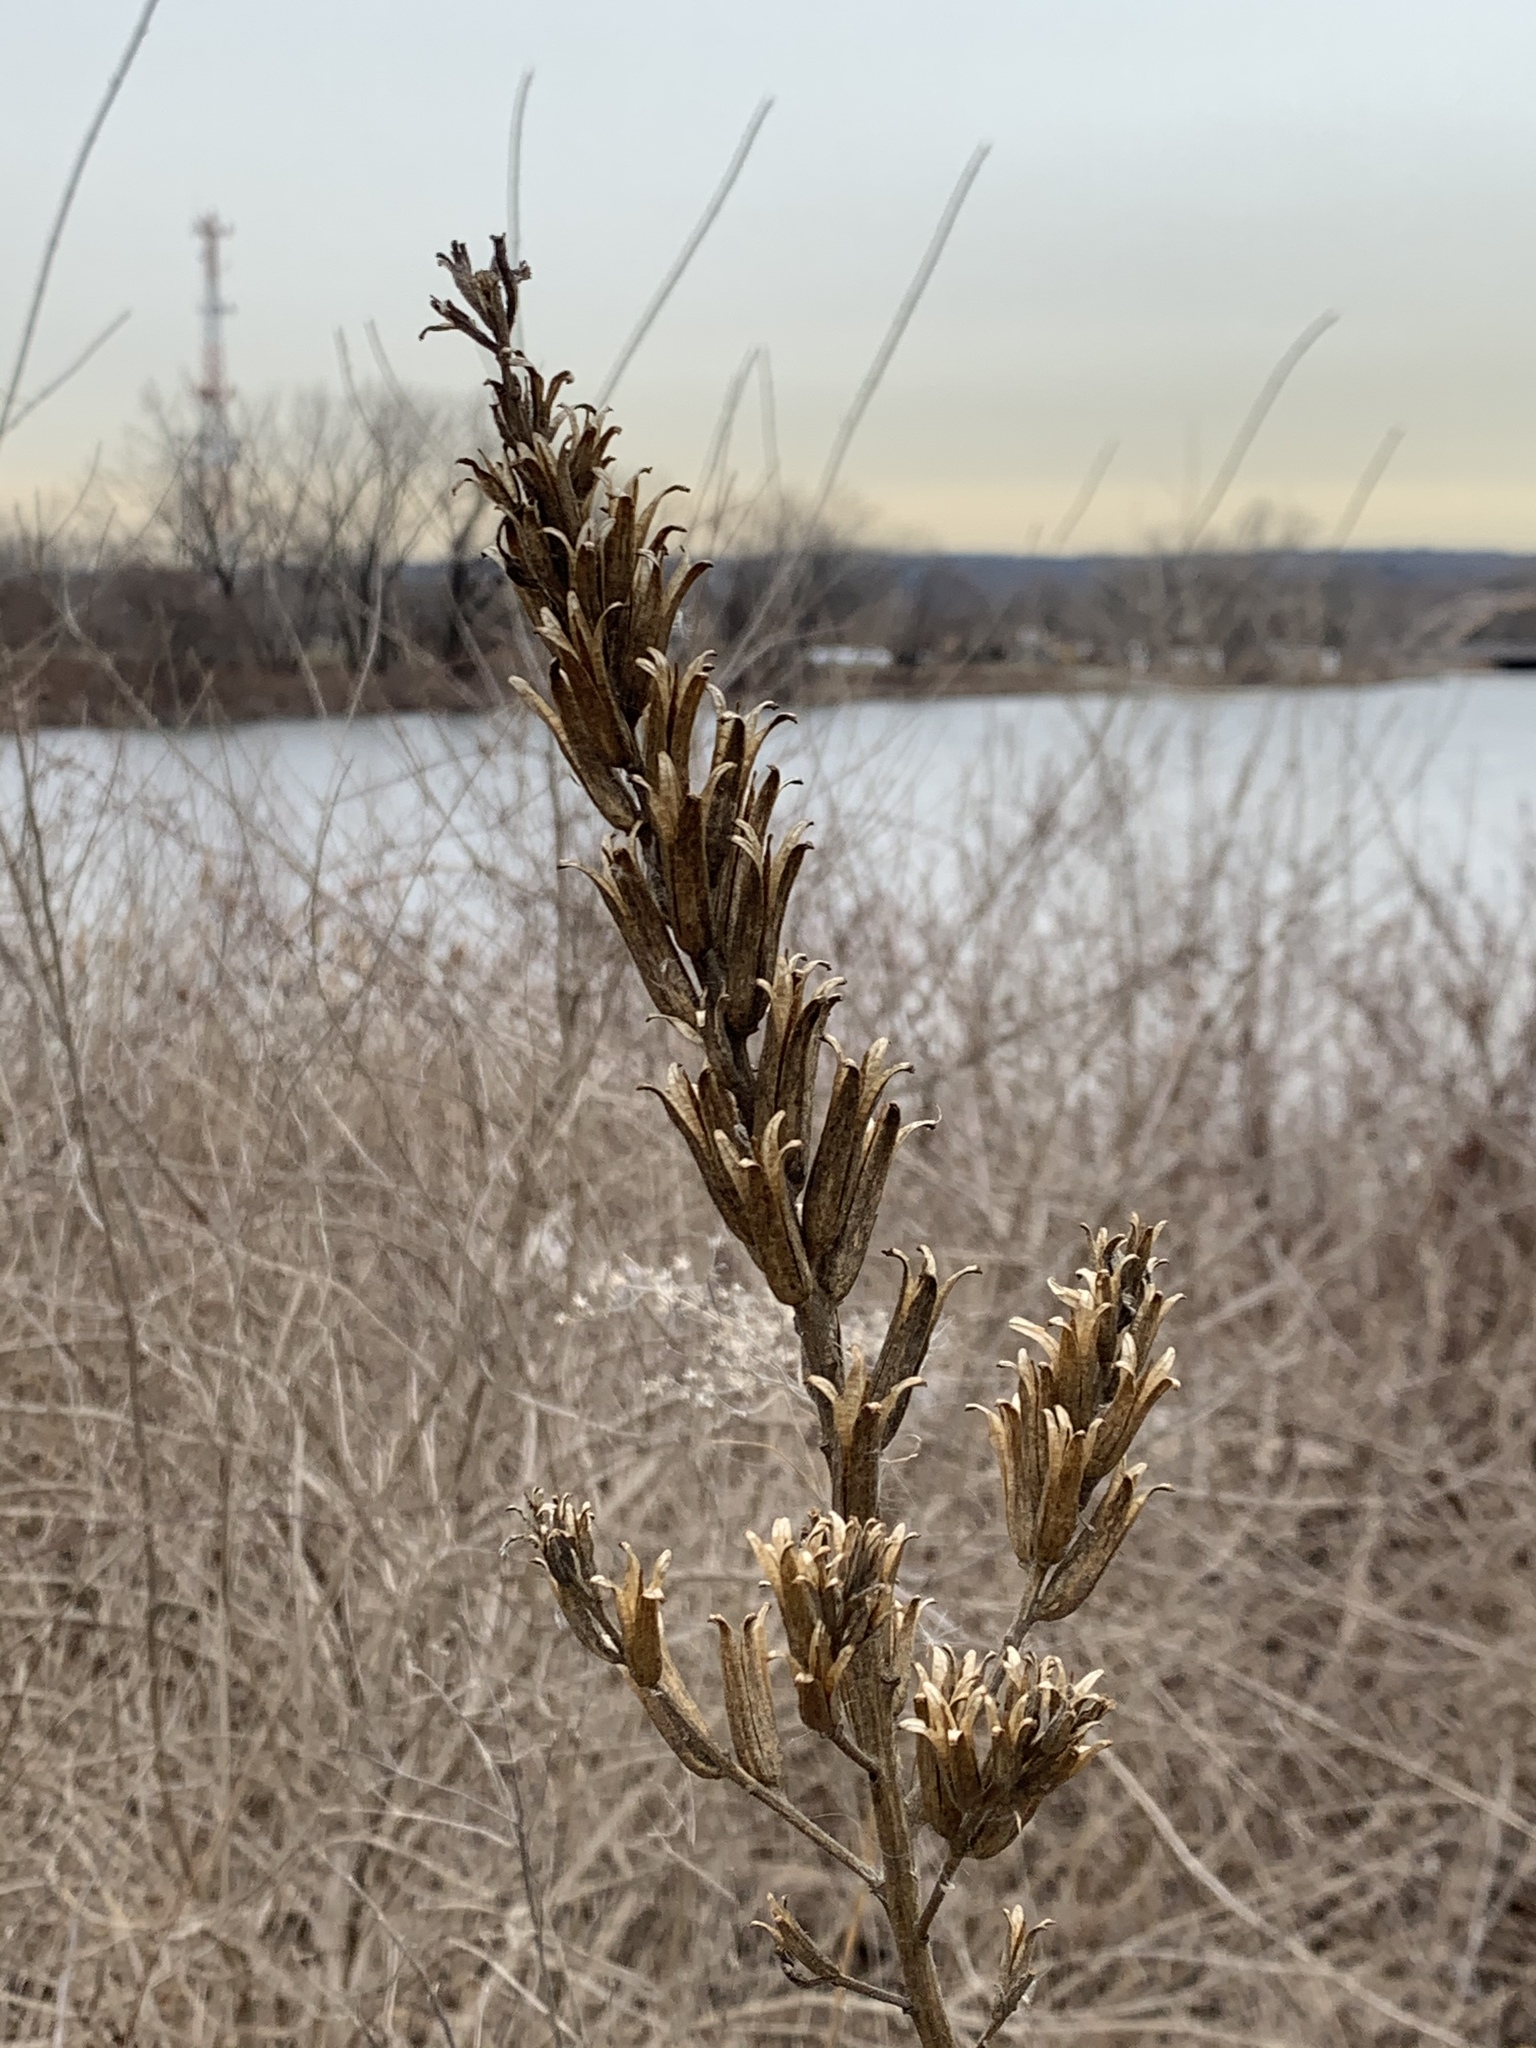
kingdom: Plantae
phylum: Tracheophyta
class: Magnoliopsida
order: Myrtales
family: Onagraceae
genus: Oenothera
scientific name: Oenothera biennis
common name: Common evening-primrose
